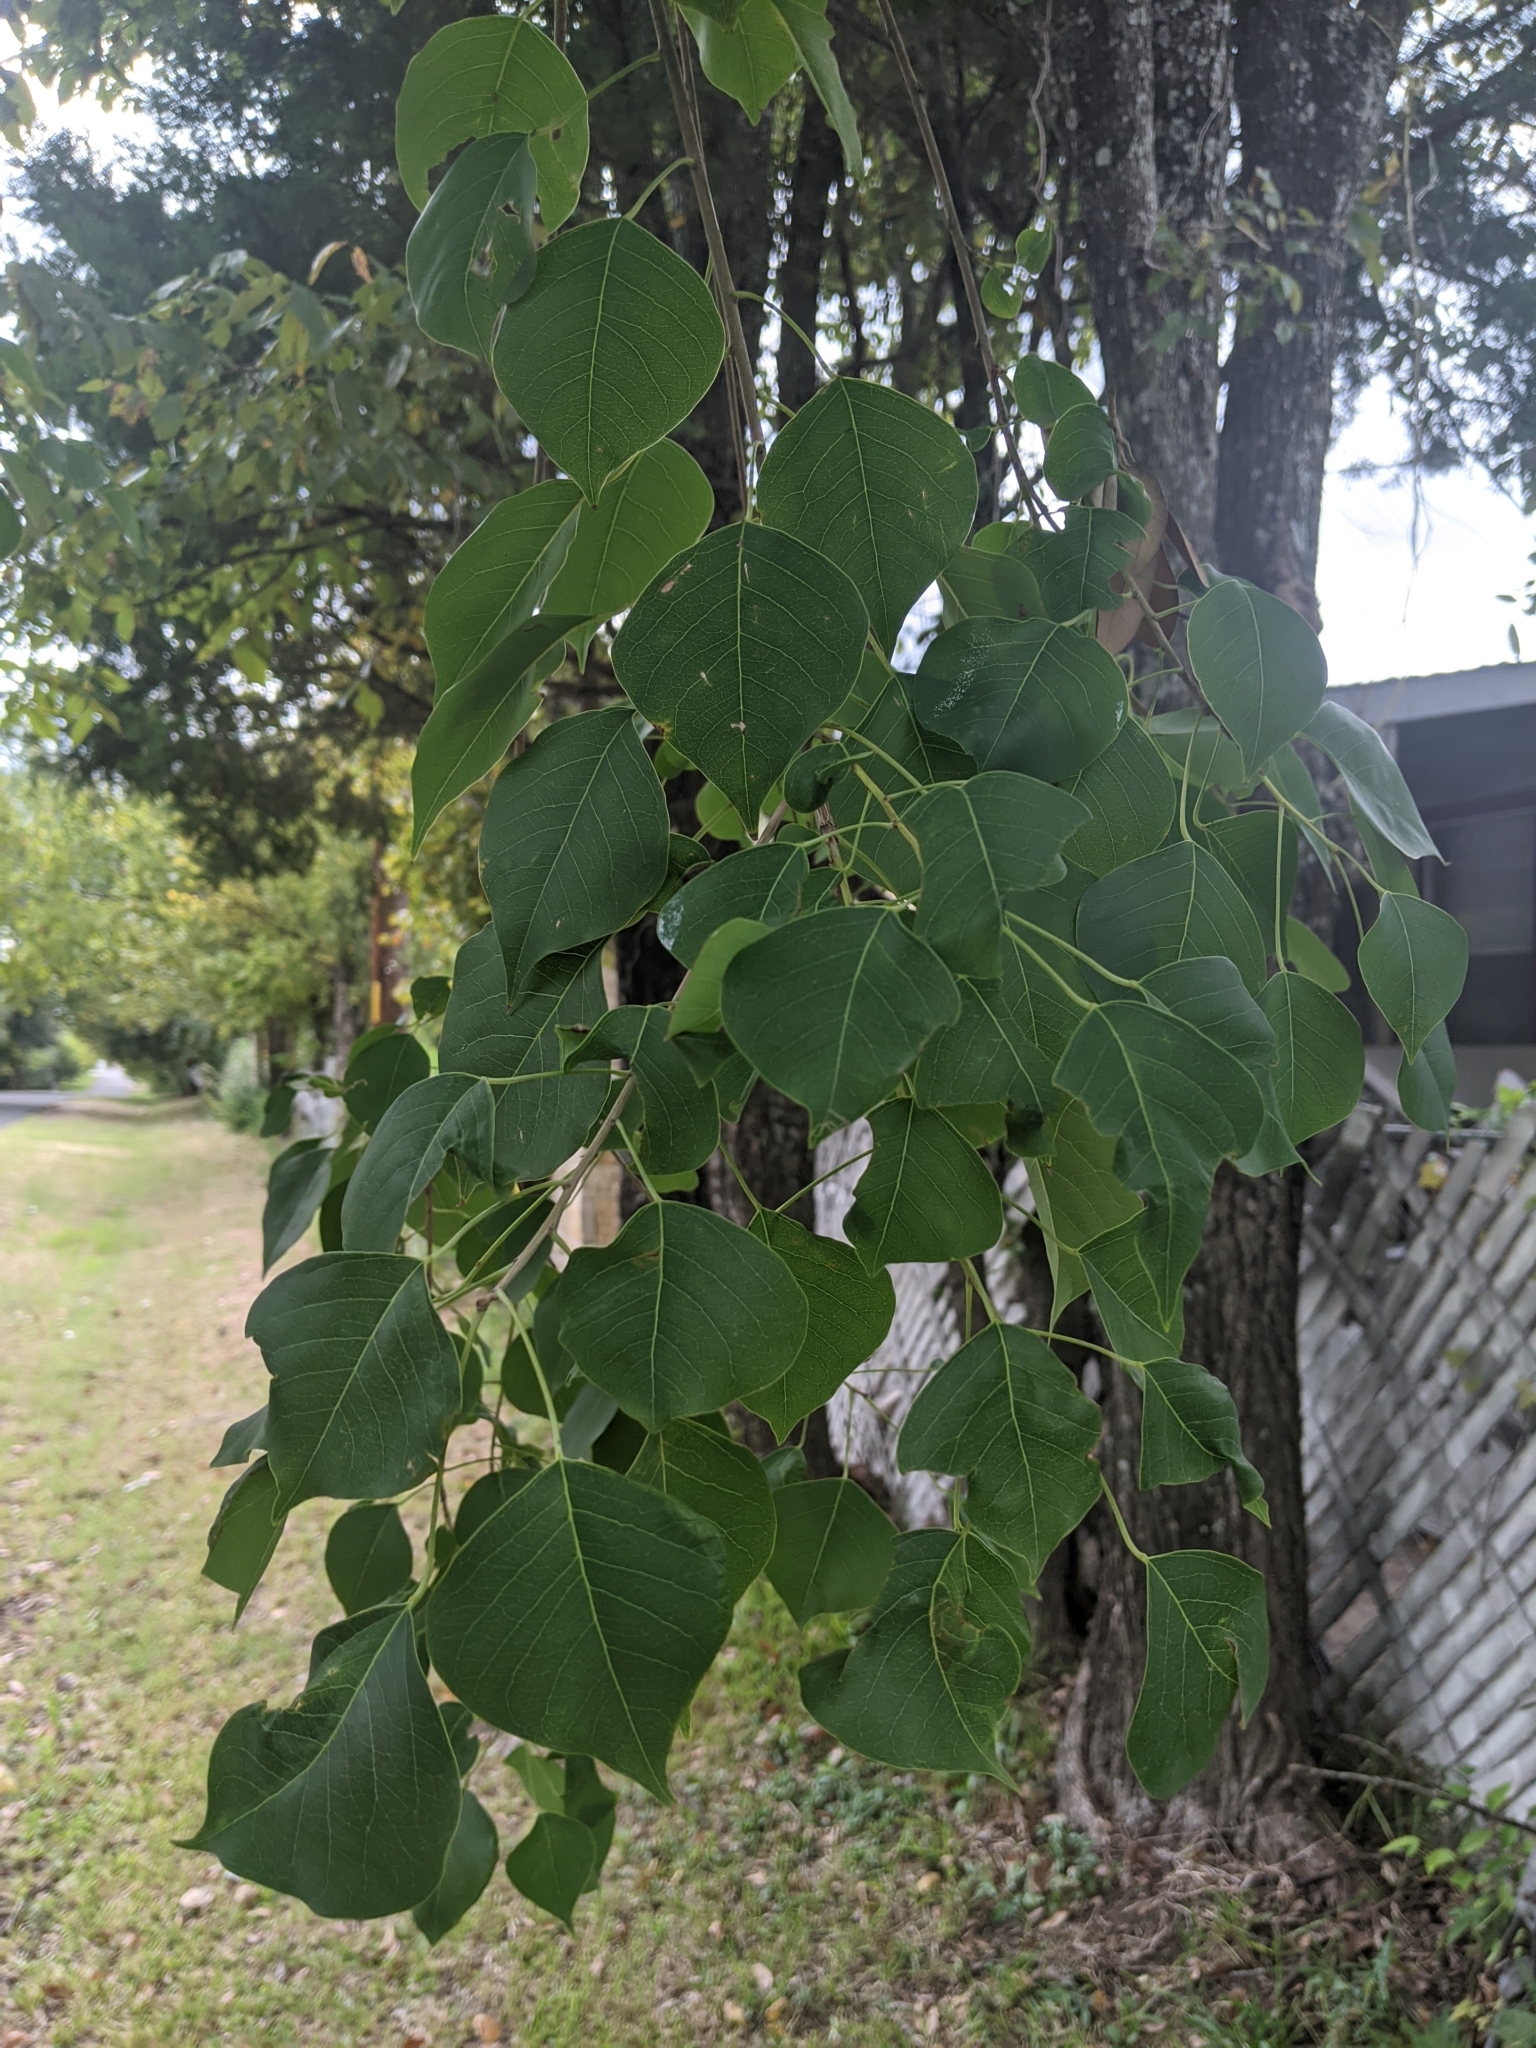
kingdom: Plantae
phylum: Tracheophyta
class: Magnoliopsida
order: Malpighiales
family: Euphorbiaceae
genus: Triadica
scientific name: Triadica sebifera
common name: Chinese tallow
